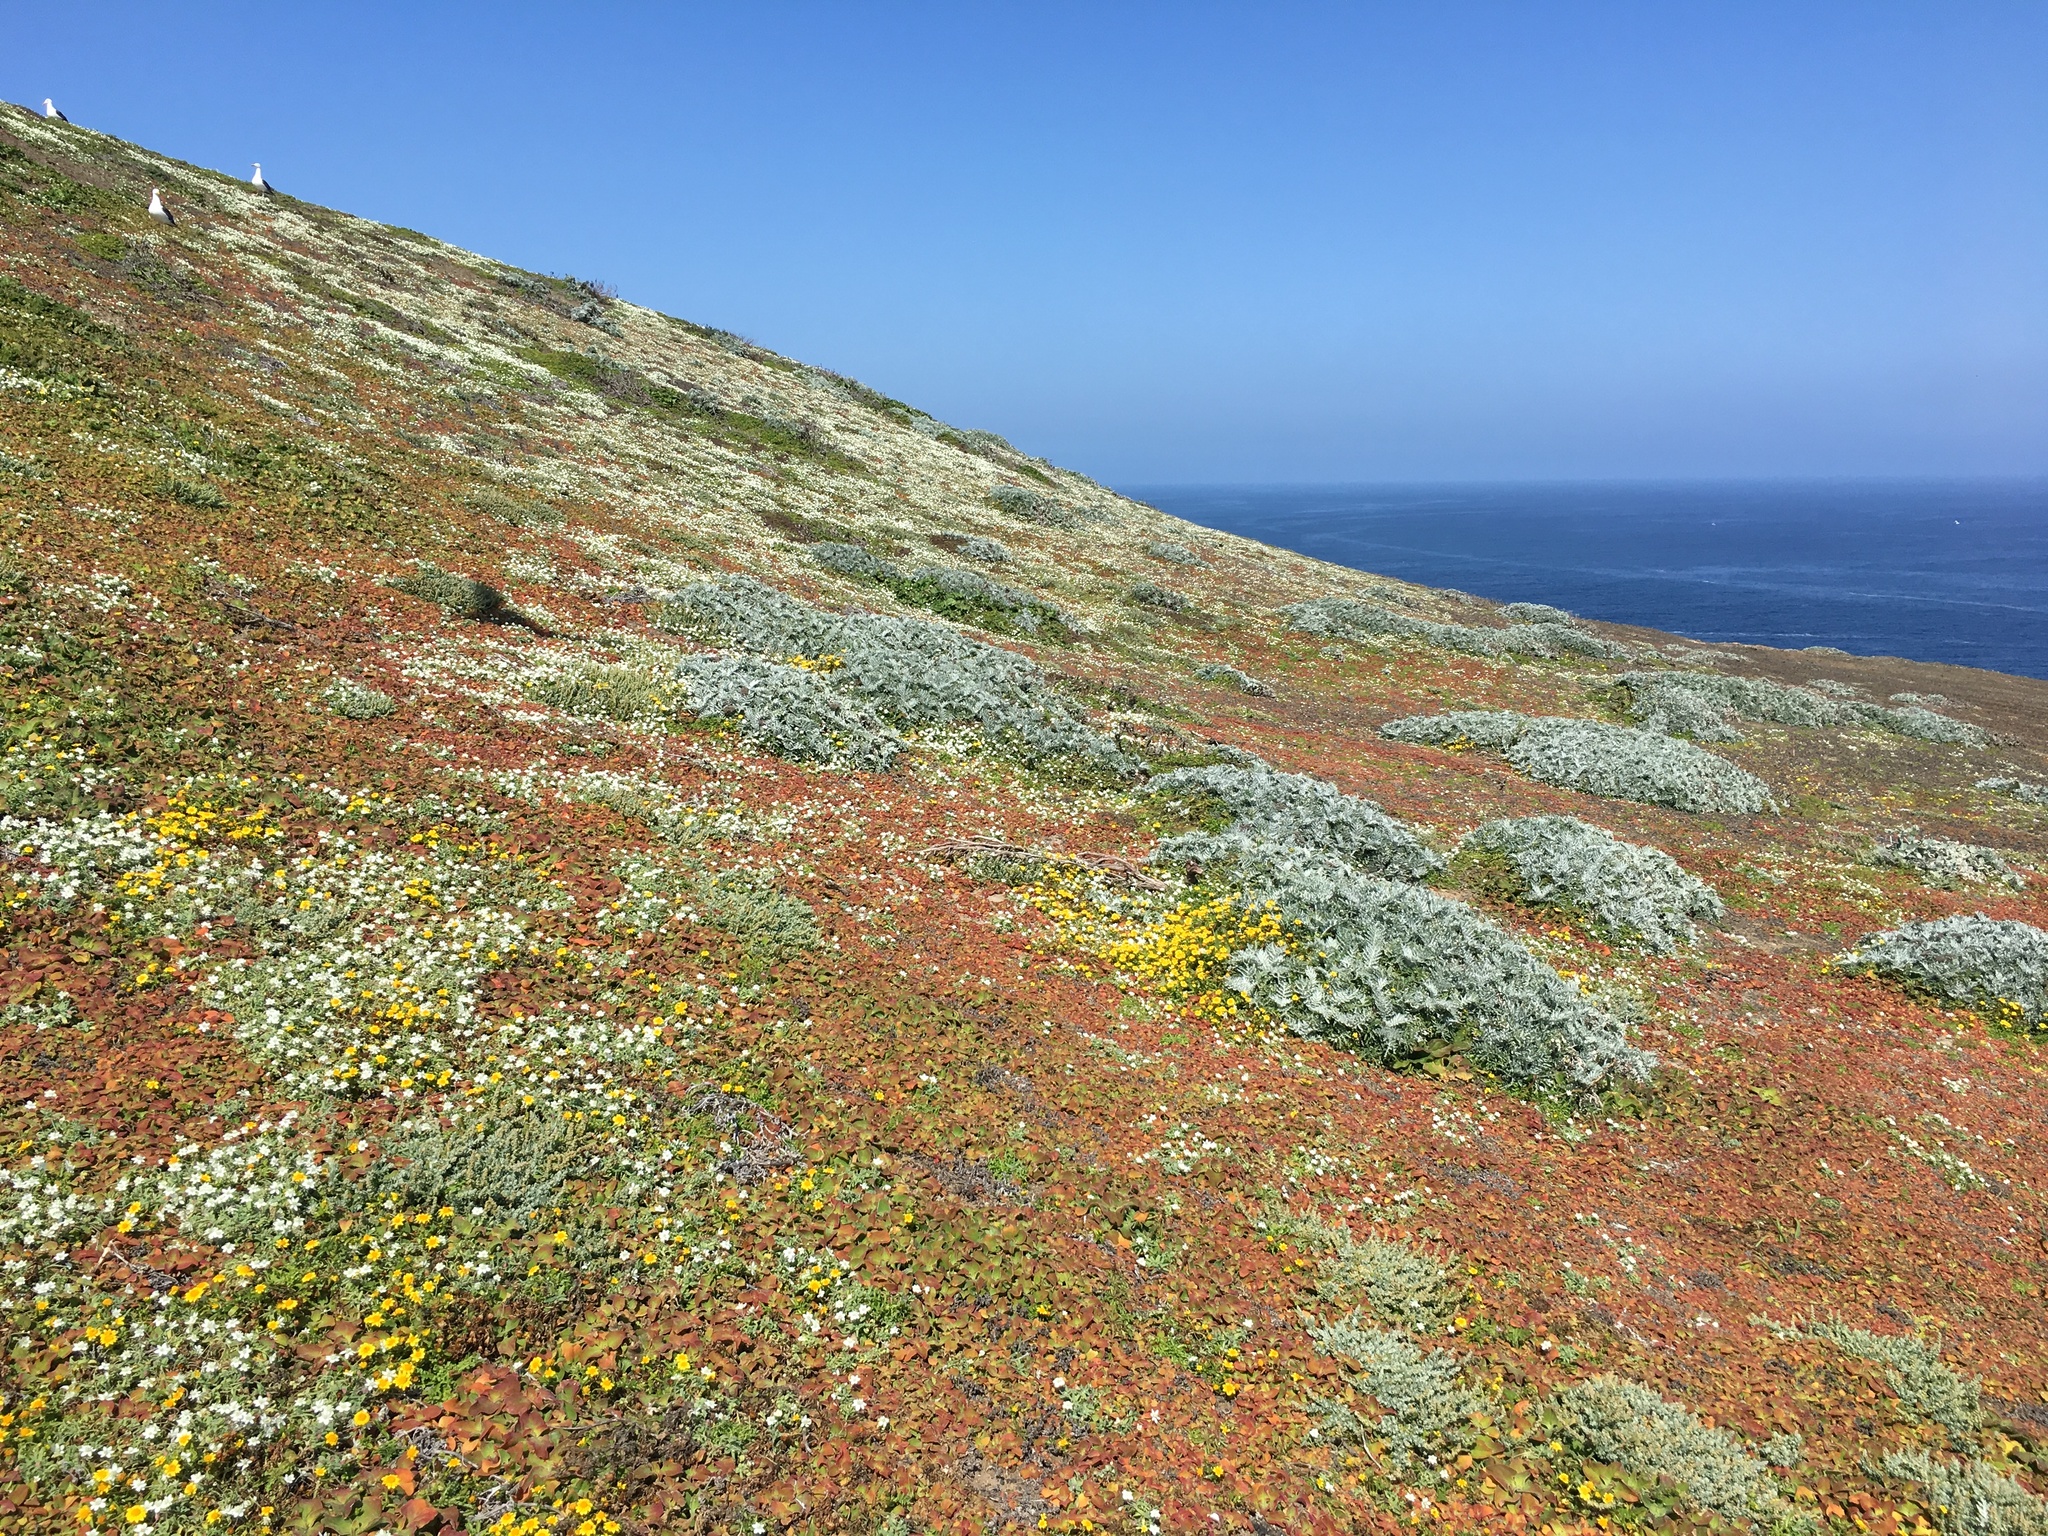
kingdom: Plantae
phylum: Tracheophyta
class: Magnoliopsida
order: Ranunculales
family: Papaveraceae
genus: Platystemon
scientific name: Platystemon californicus
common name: Cream-cups
